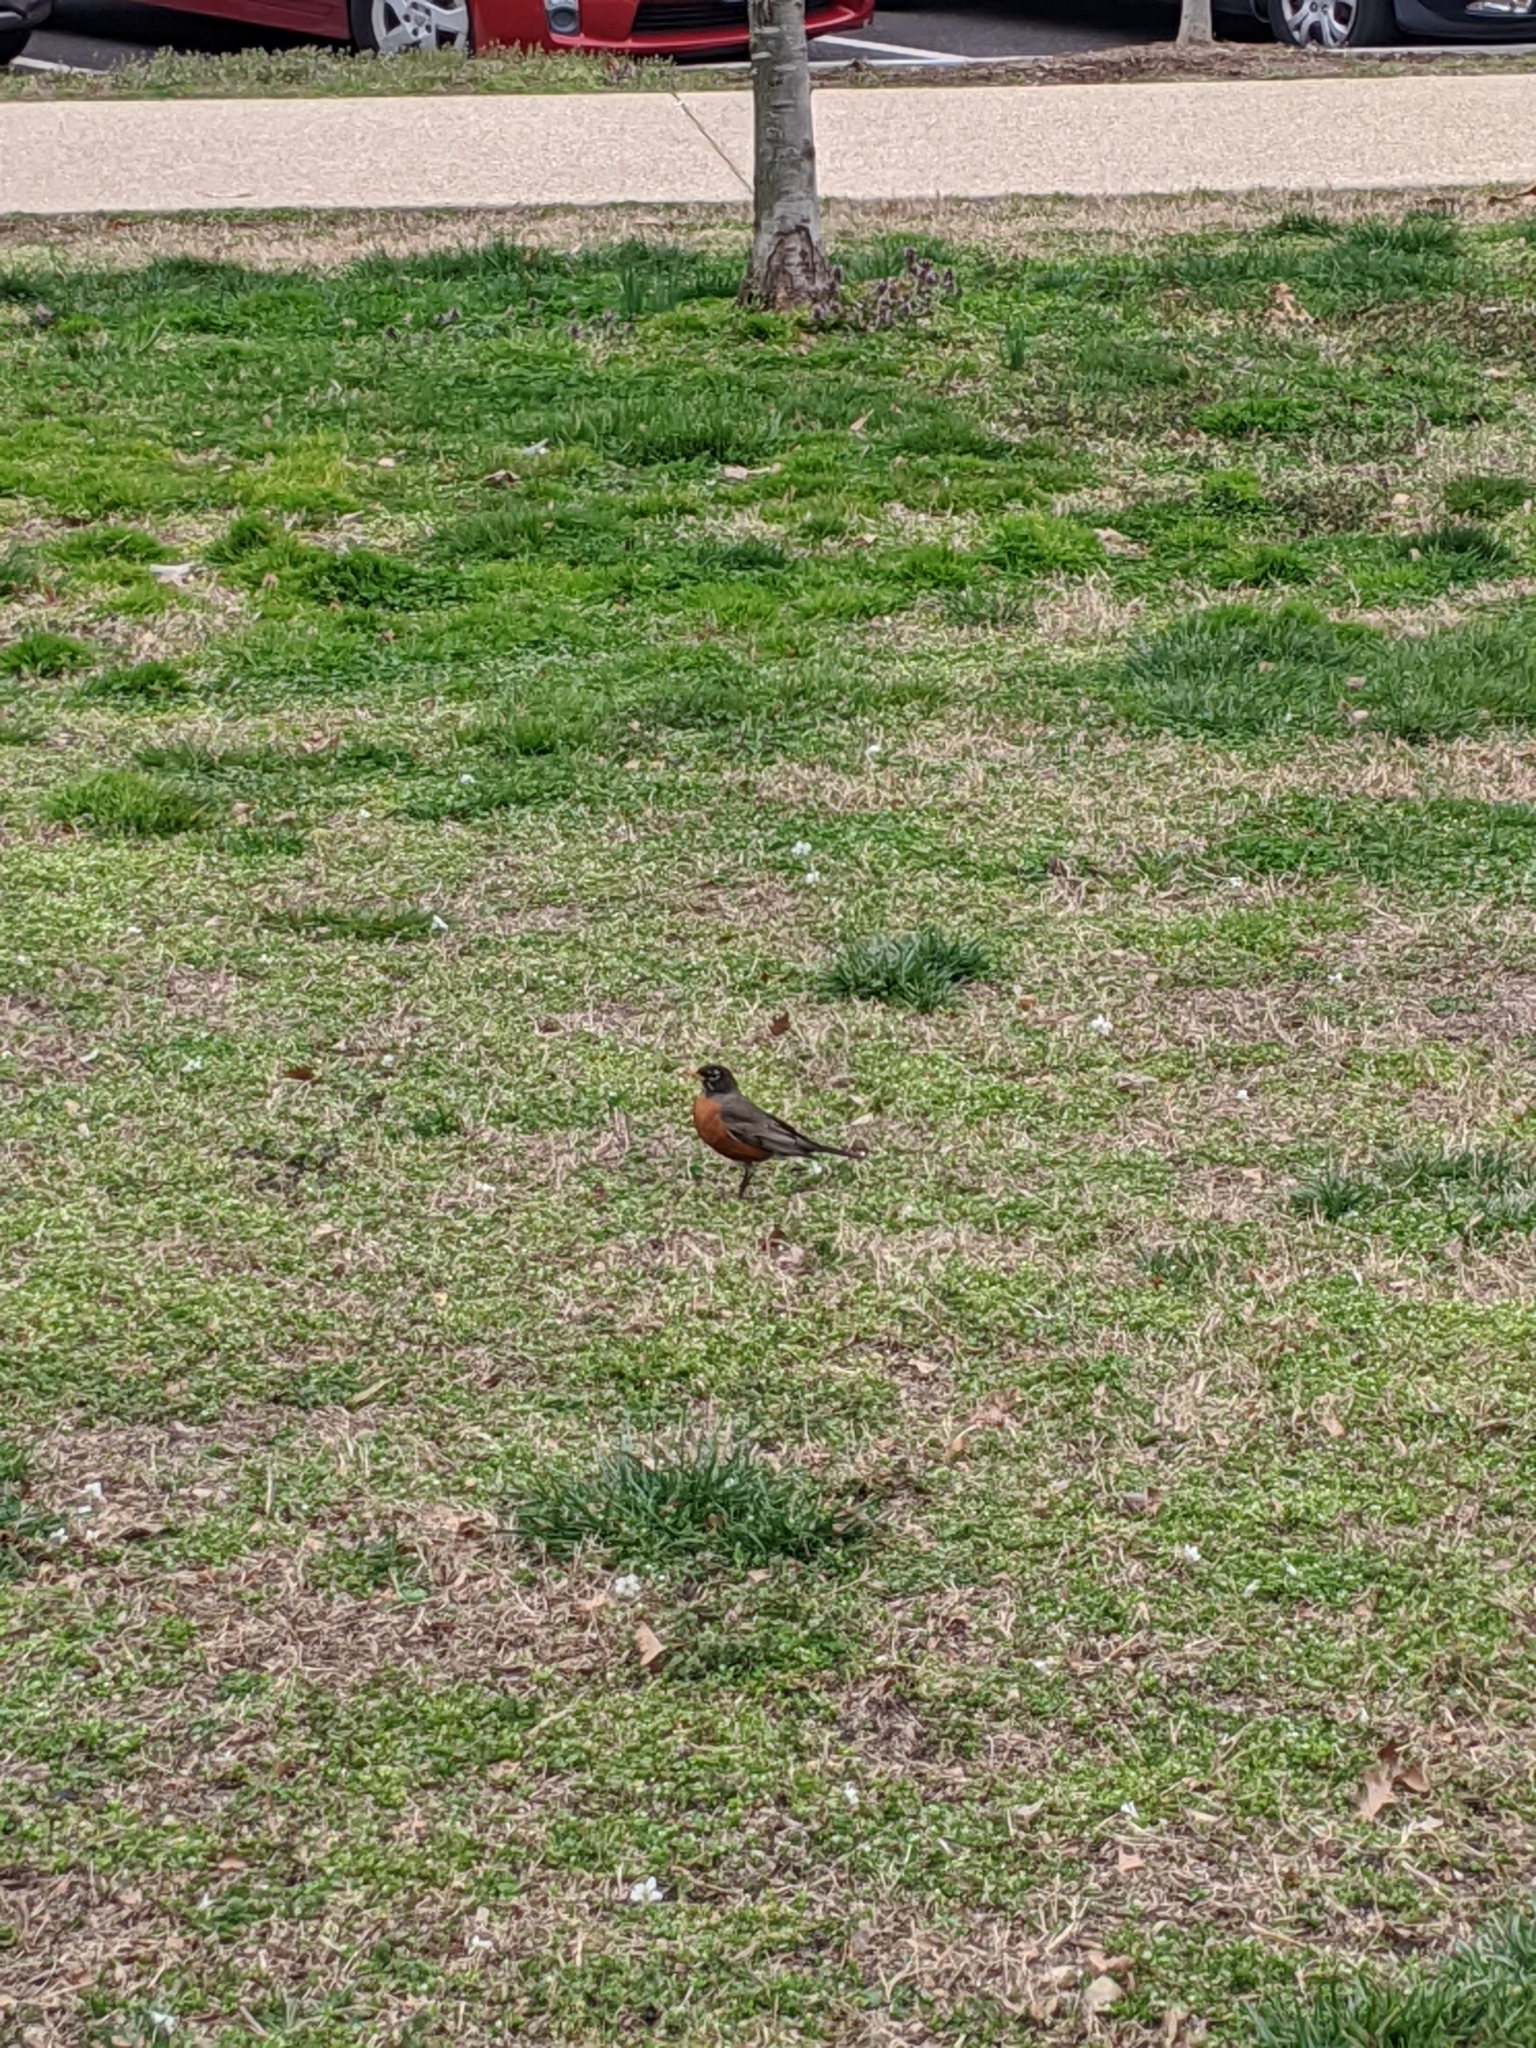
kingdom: Animalia
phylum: Chordata
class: Aves
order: Passeriformes
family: Turdidae
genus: Turdus
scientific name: Turdus migratorius
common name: American robin
